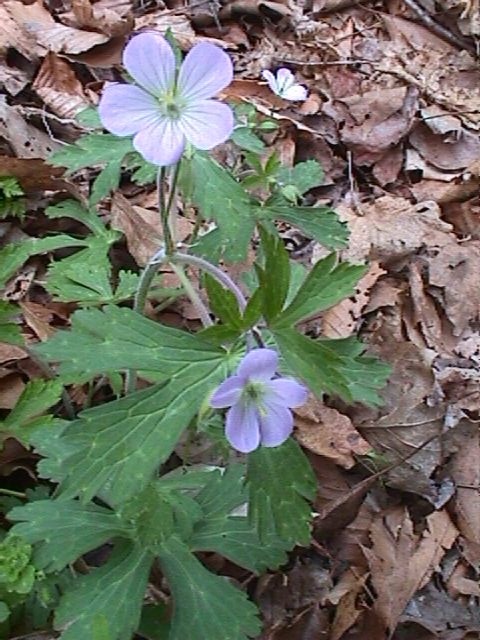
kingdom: Plantae
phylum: Tracheophyta
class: Magnoliopsida
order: Geraniales
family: Geraniaceae
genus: Geranium
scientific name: Geranium maculatum
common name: Spotted geranium
